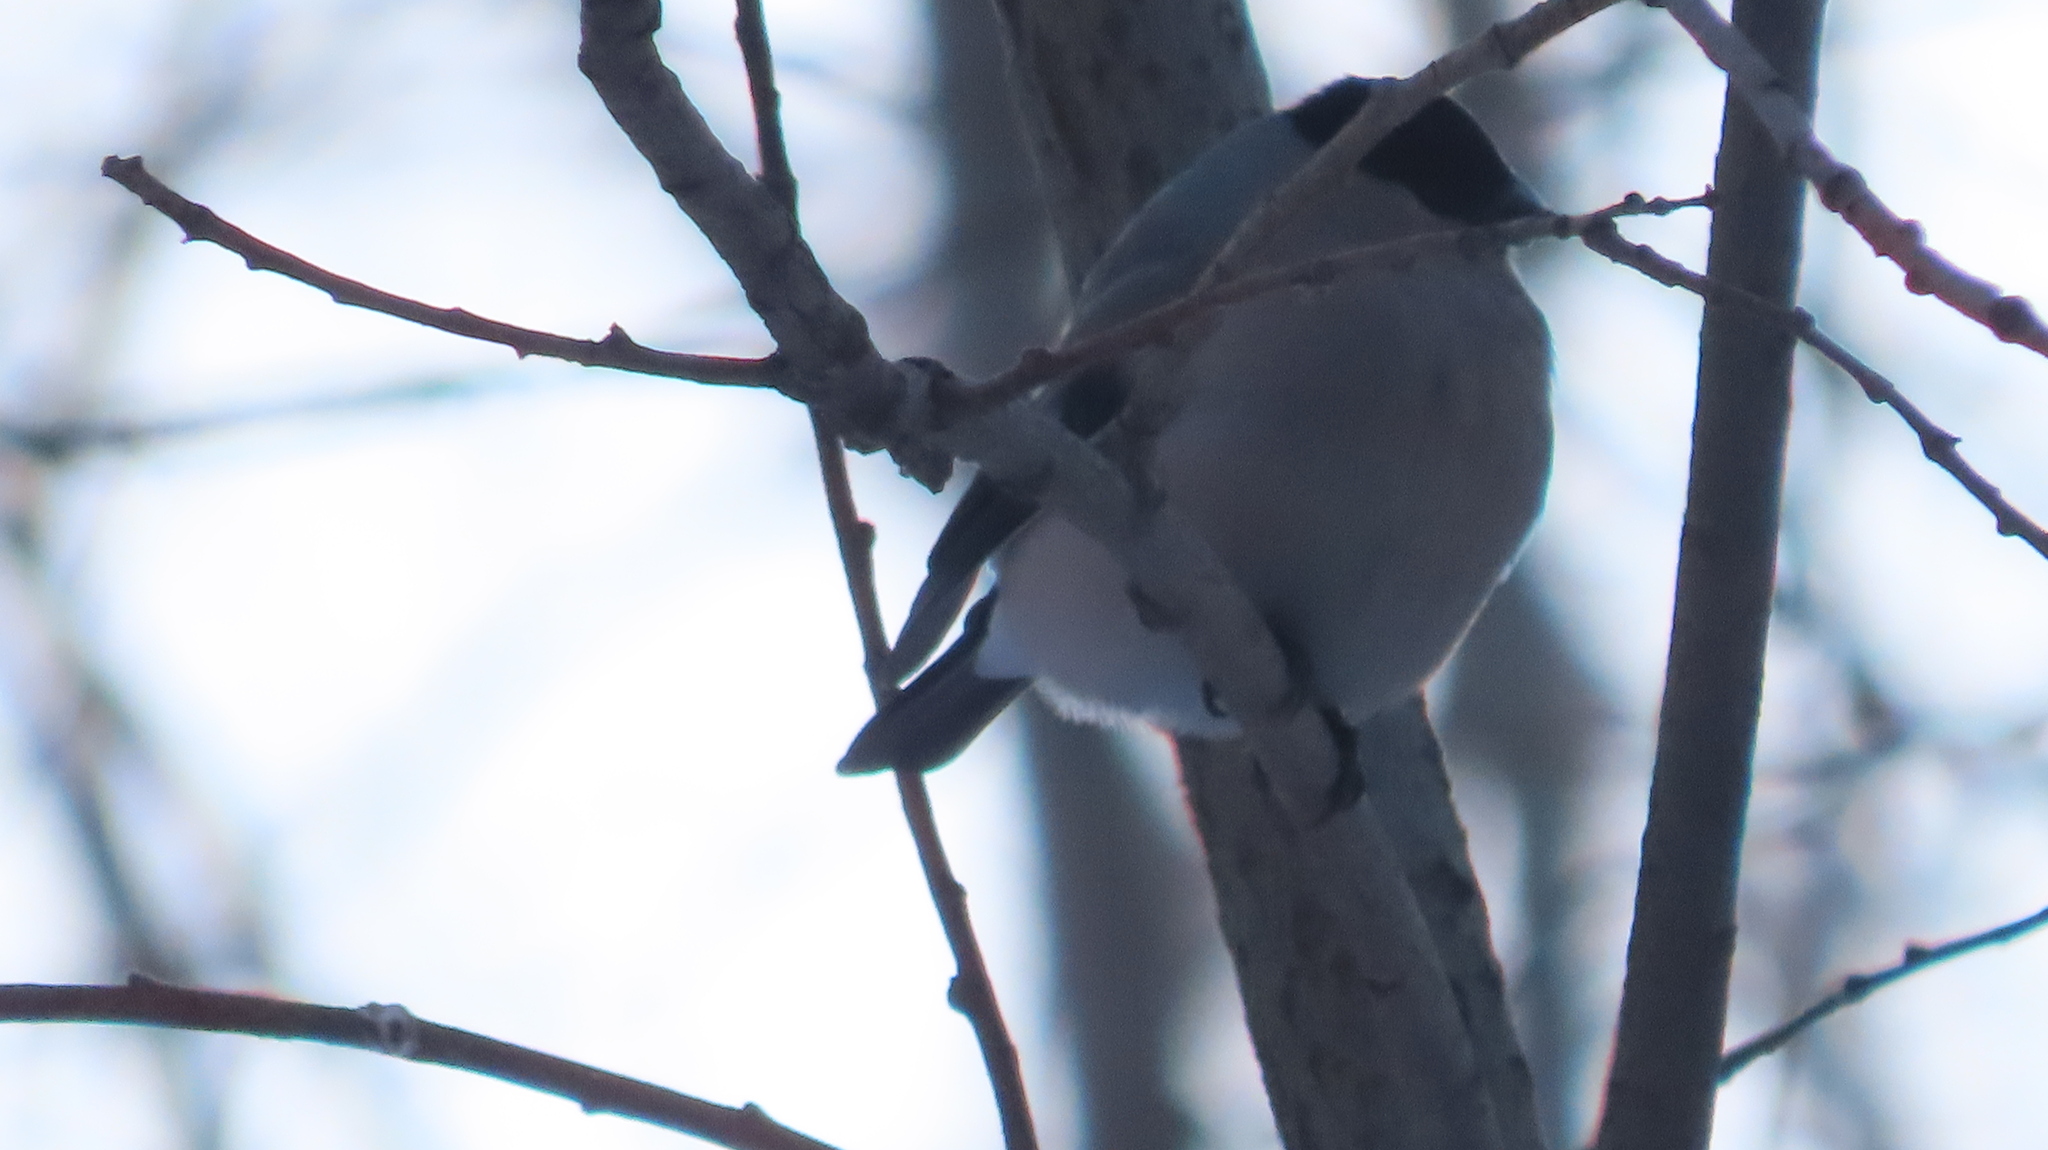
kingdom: Animalia
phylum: Chordata
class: Aves
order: Passeriformes
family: Fringillidae
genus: Pyrrhula
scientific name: Pyrrhula pyrrhula
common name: Eurasian bullfinch
